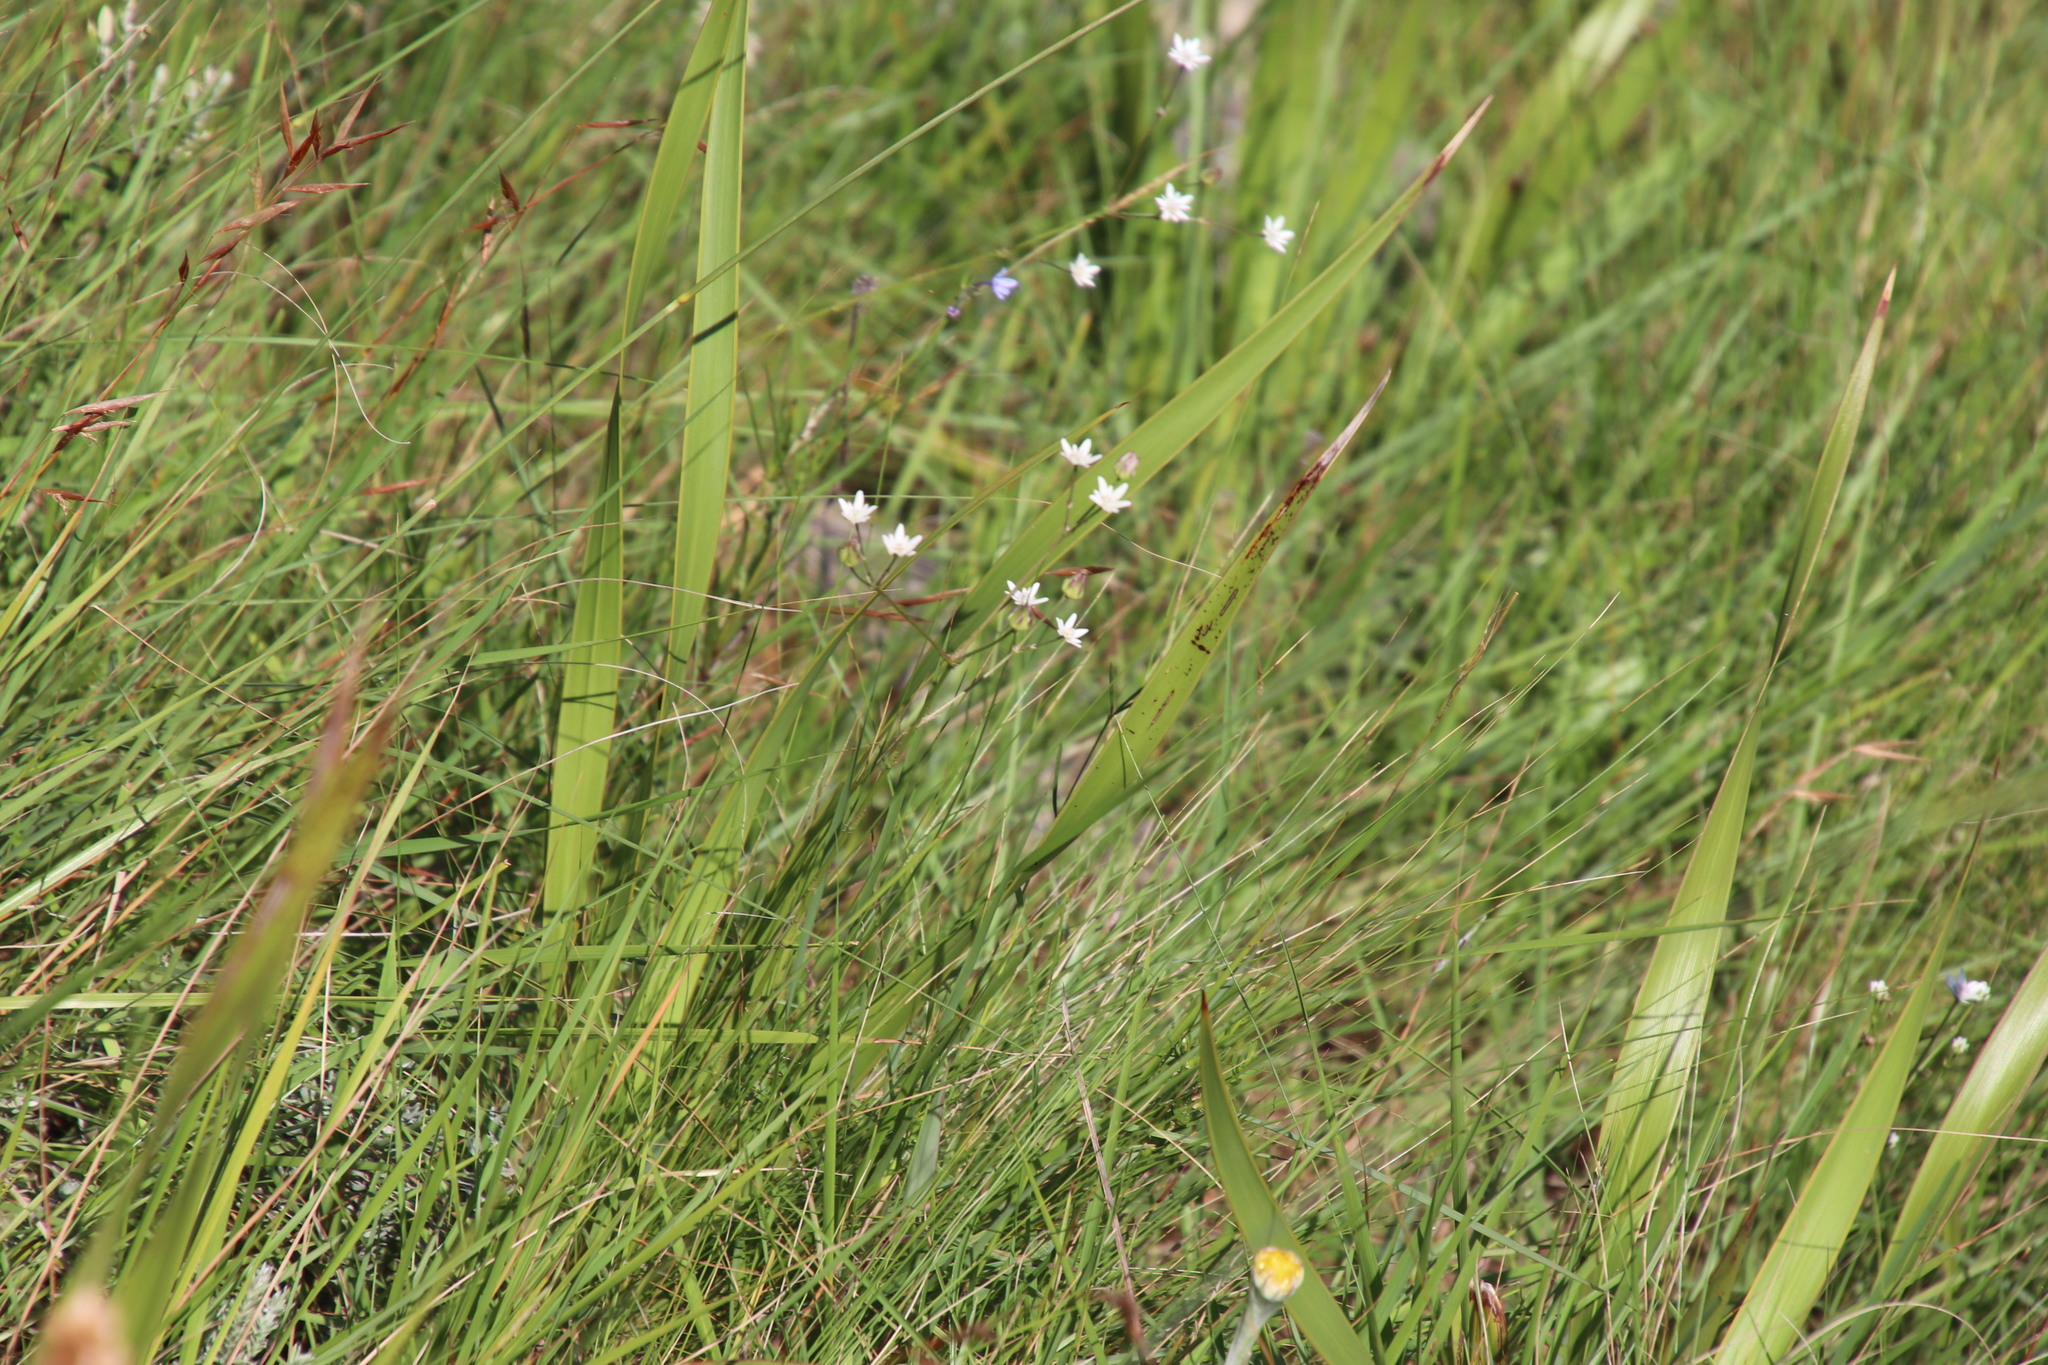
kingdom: Plantae
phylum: Tracheophyta
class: Magnoliopsida
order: Apiales
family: Apiaceae
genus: Alepidea
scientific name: Alepidea peduncularis
